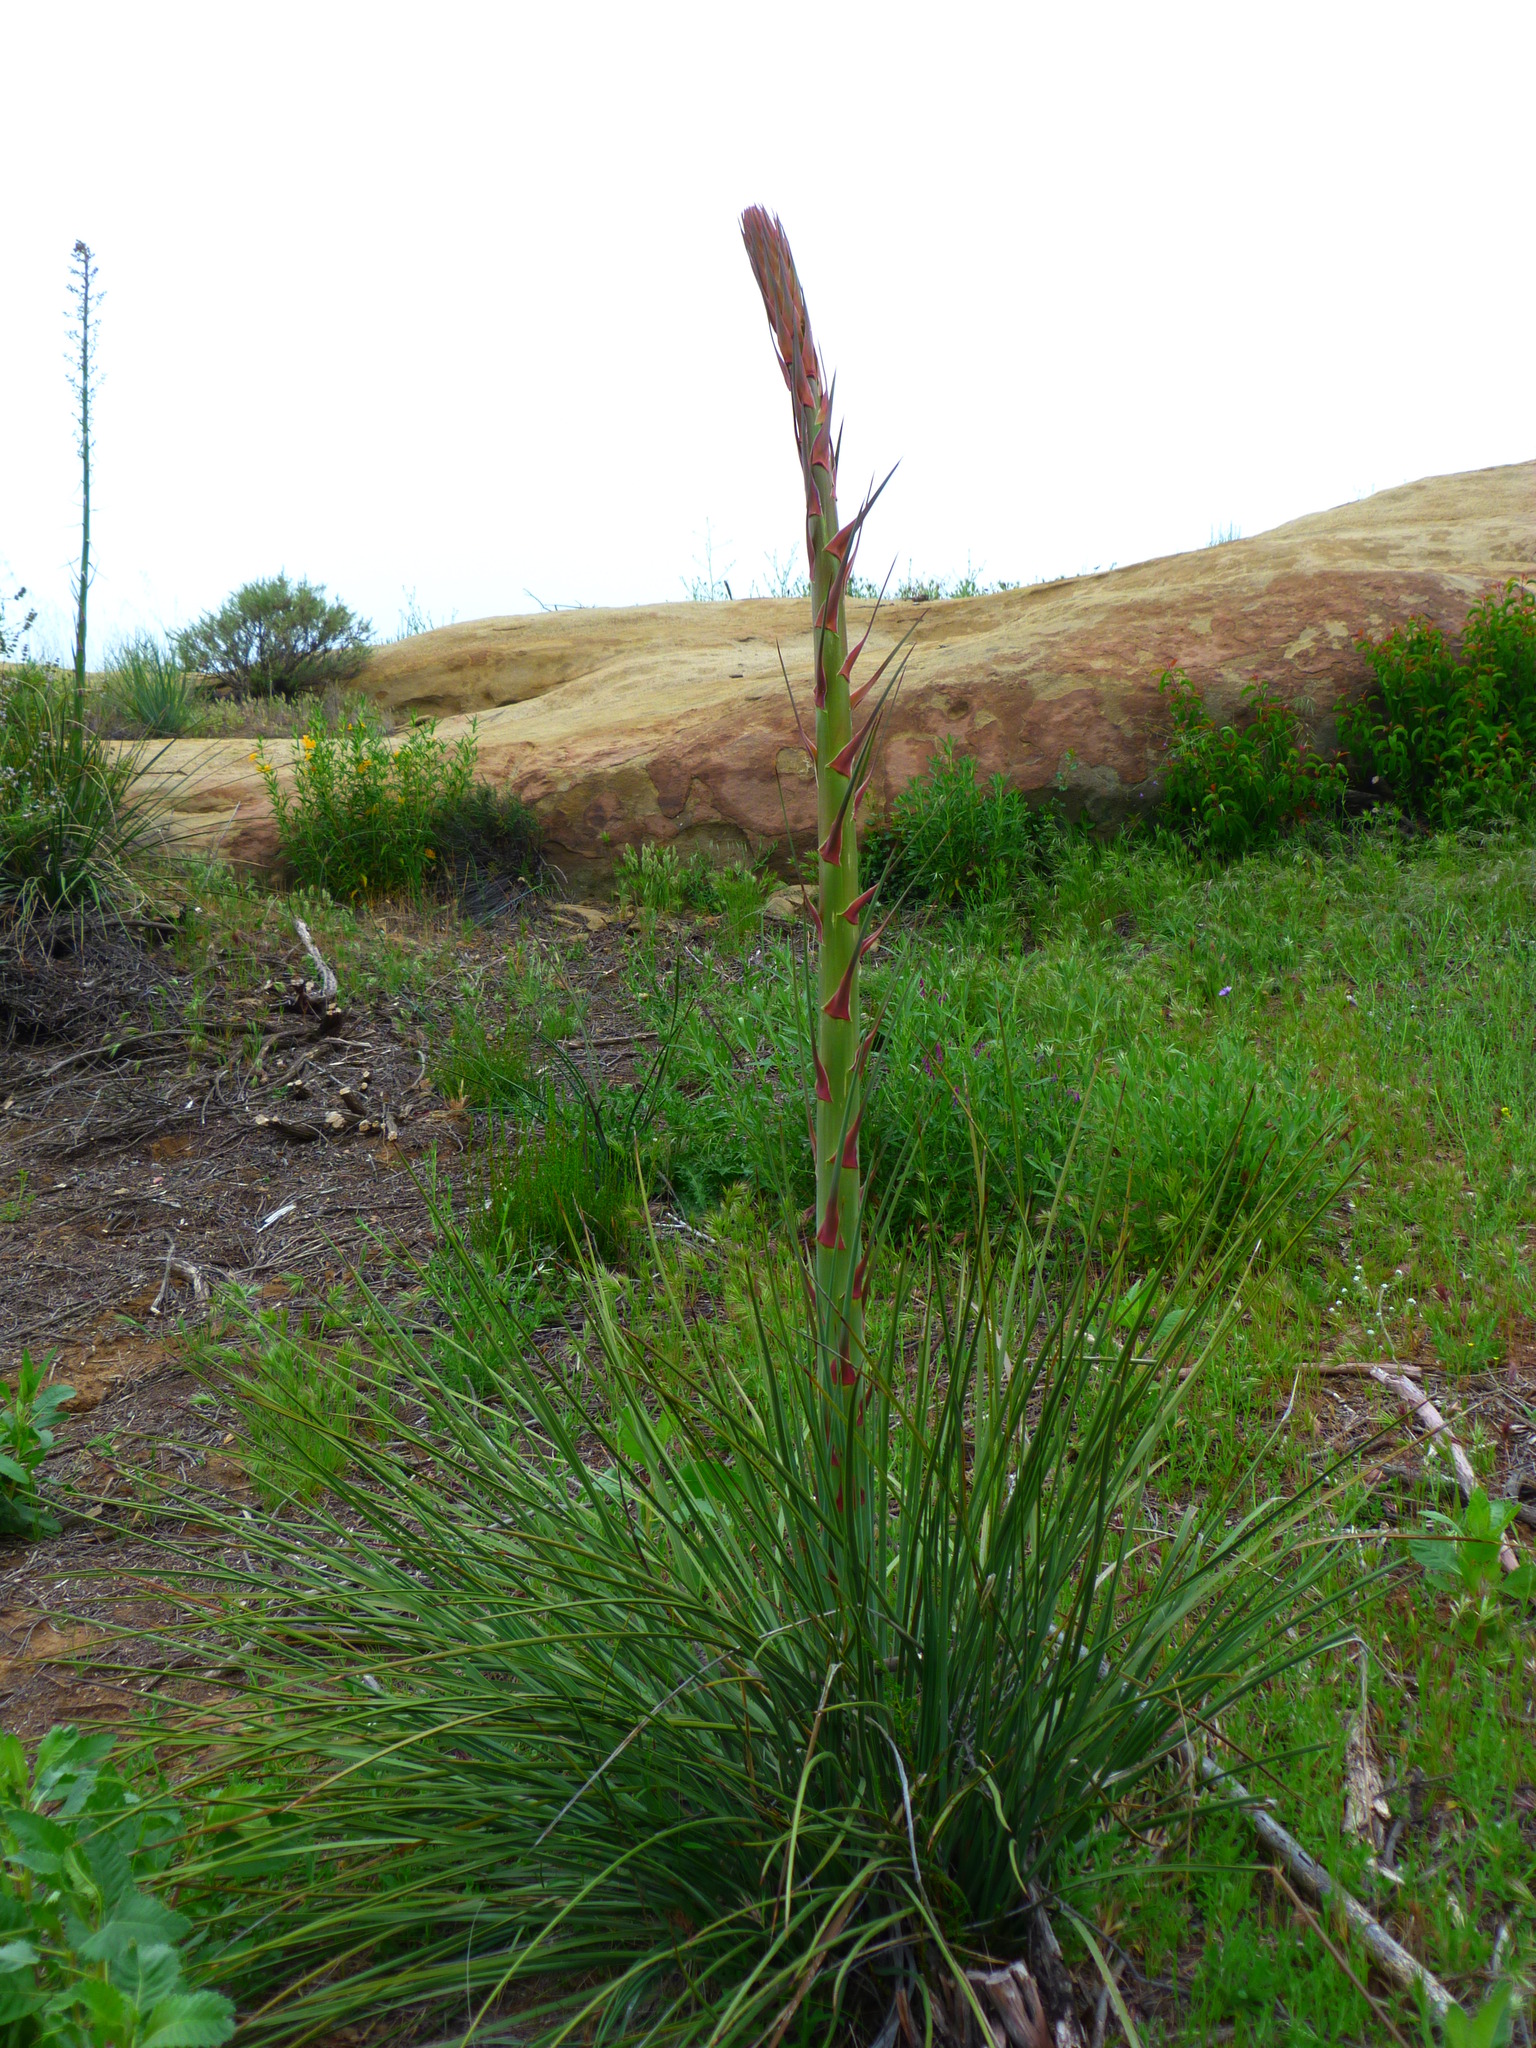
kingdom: Plantae
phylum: Tracheophyta
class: Liliopsida
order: Asparagales
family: Asparagaceae
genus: Hesperoyucca
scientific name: Hesperoyucca whipplei
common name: Our lord's-candle
